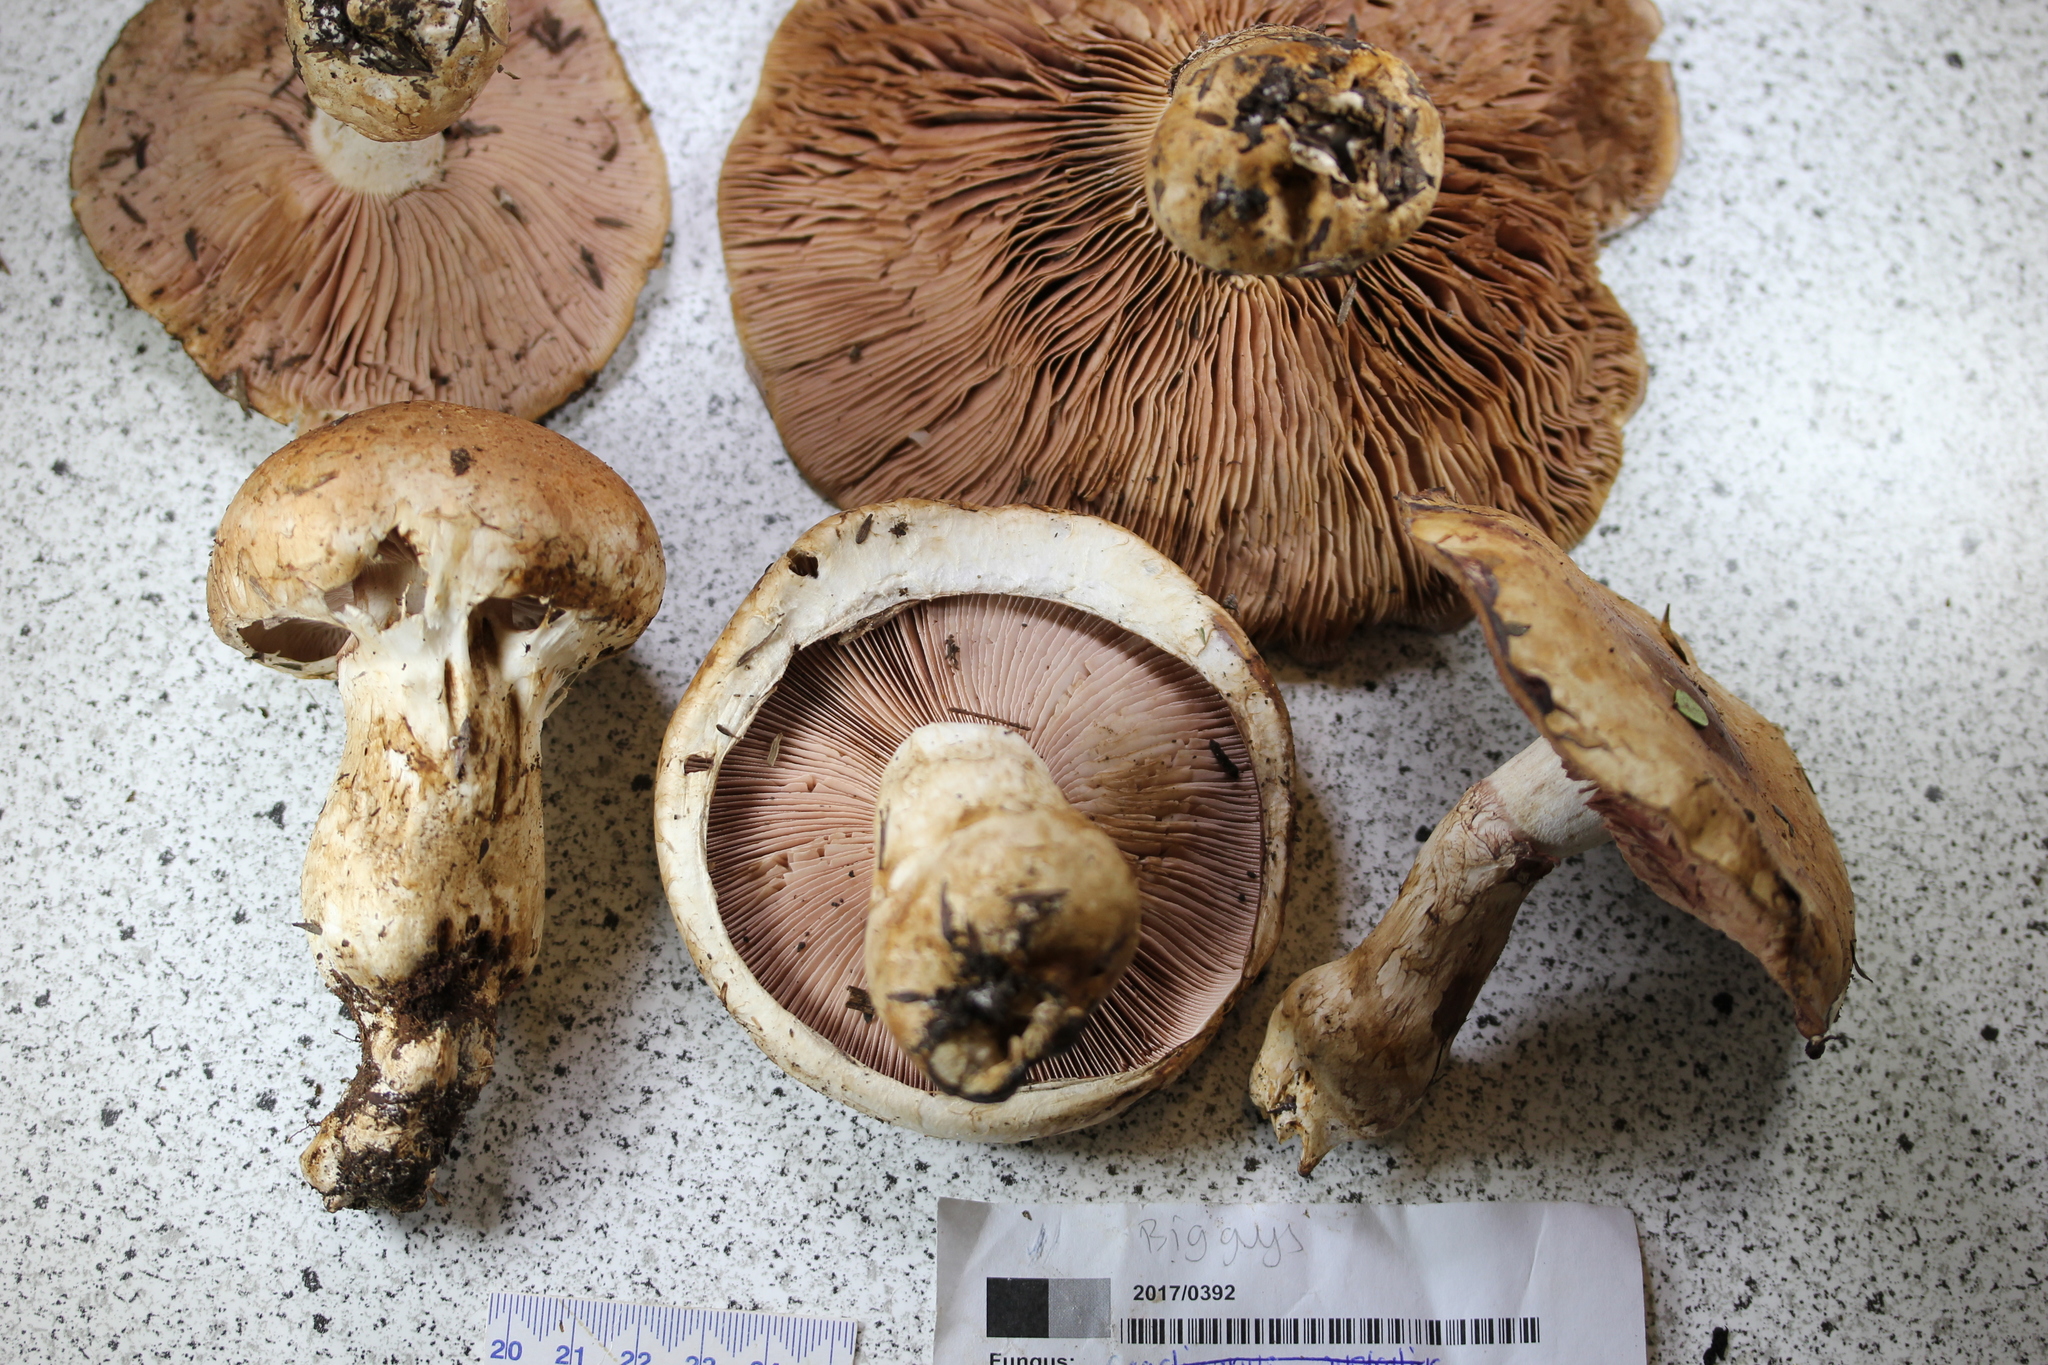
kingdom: Fungi
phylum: Basidiomycota
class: Agaricomycetes
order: Agaricales
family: Hymenogastraceae
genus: Hebeloma
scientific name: Hebeloma victoriense
